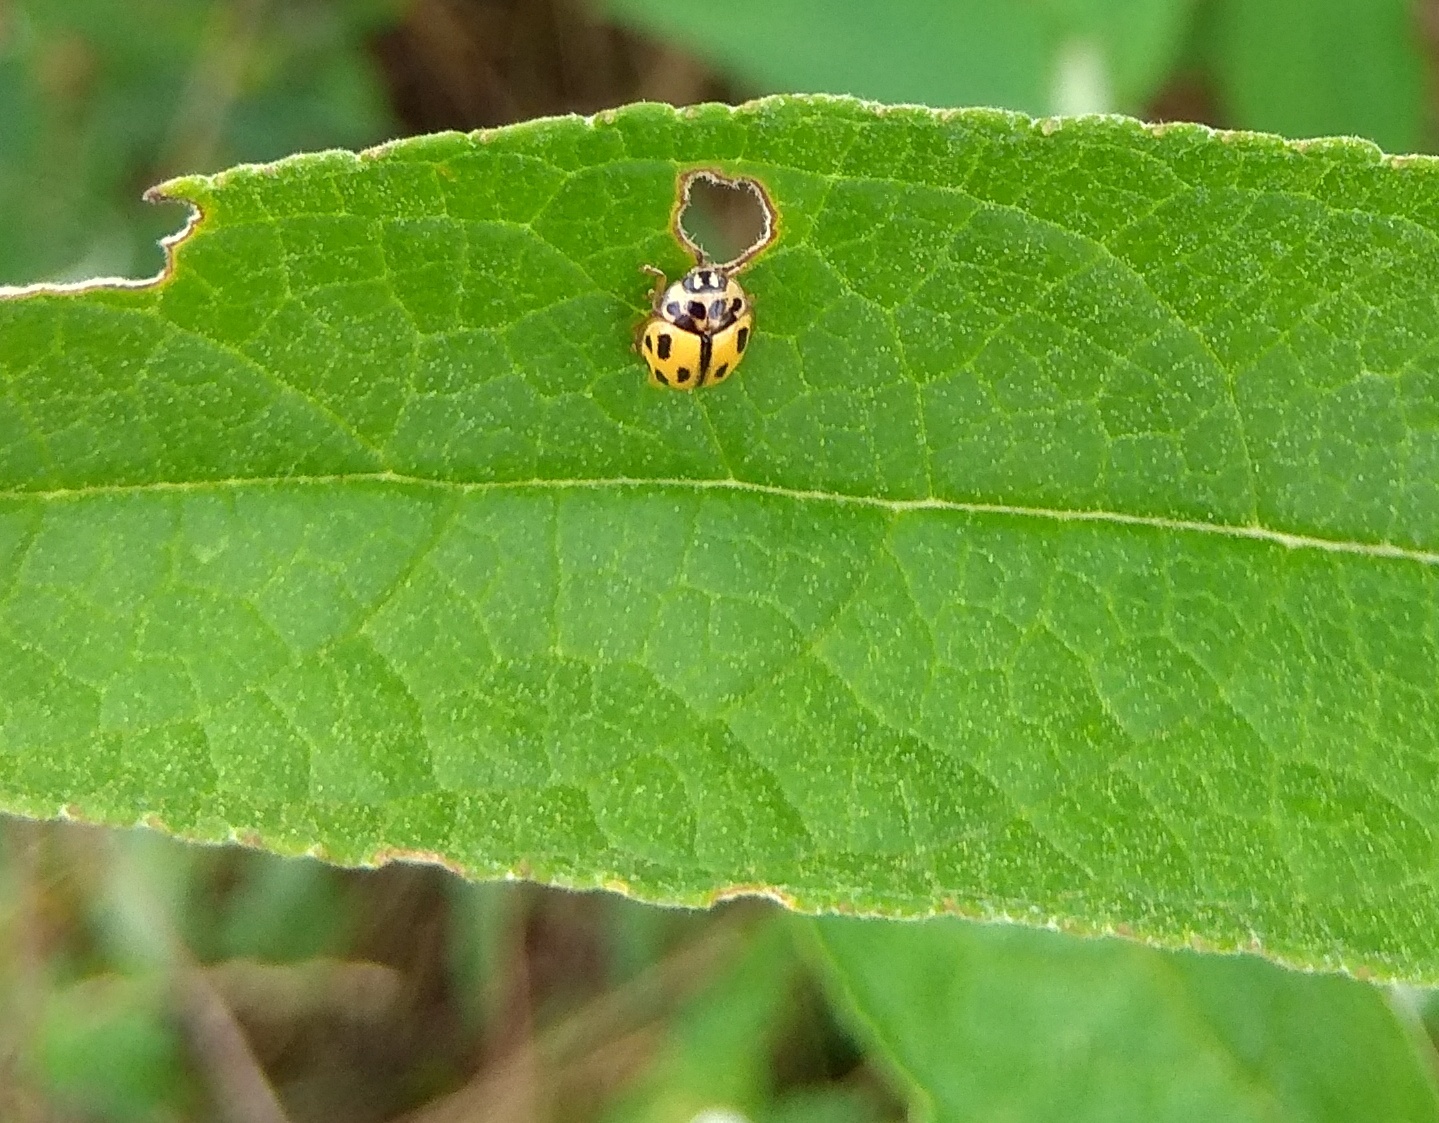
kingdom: Animalia
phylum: Arthropoda
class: Insecta
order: Coleoptera
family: Coccinellidae
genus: Propylaea
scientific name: Propylaea quatuordecimpunctata
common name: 14-spotted ladybird beetle
